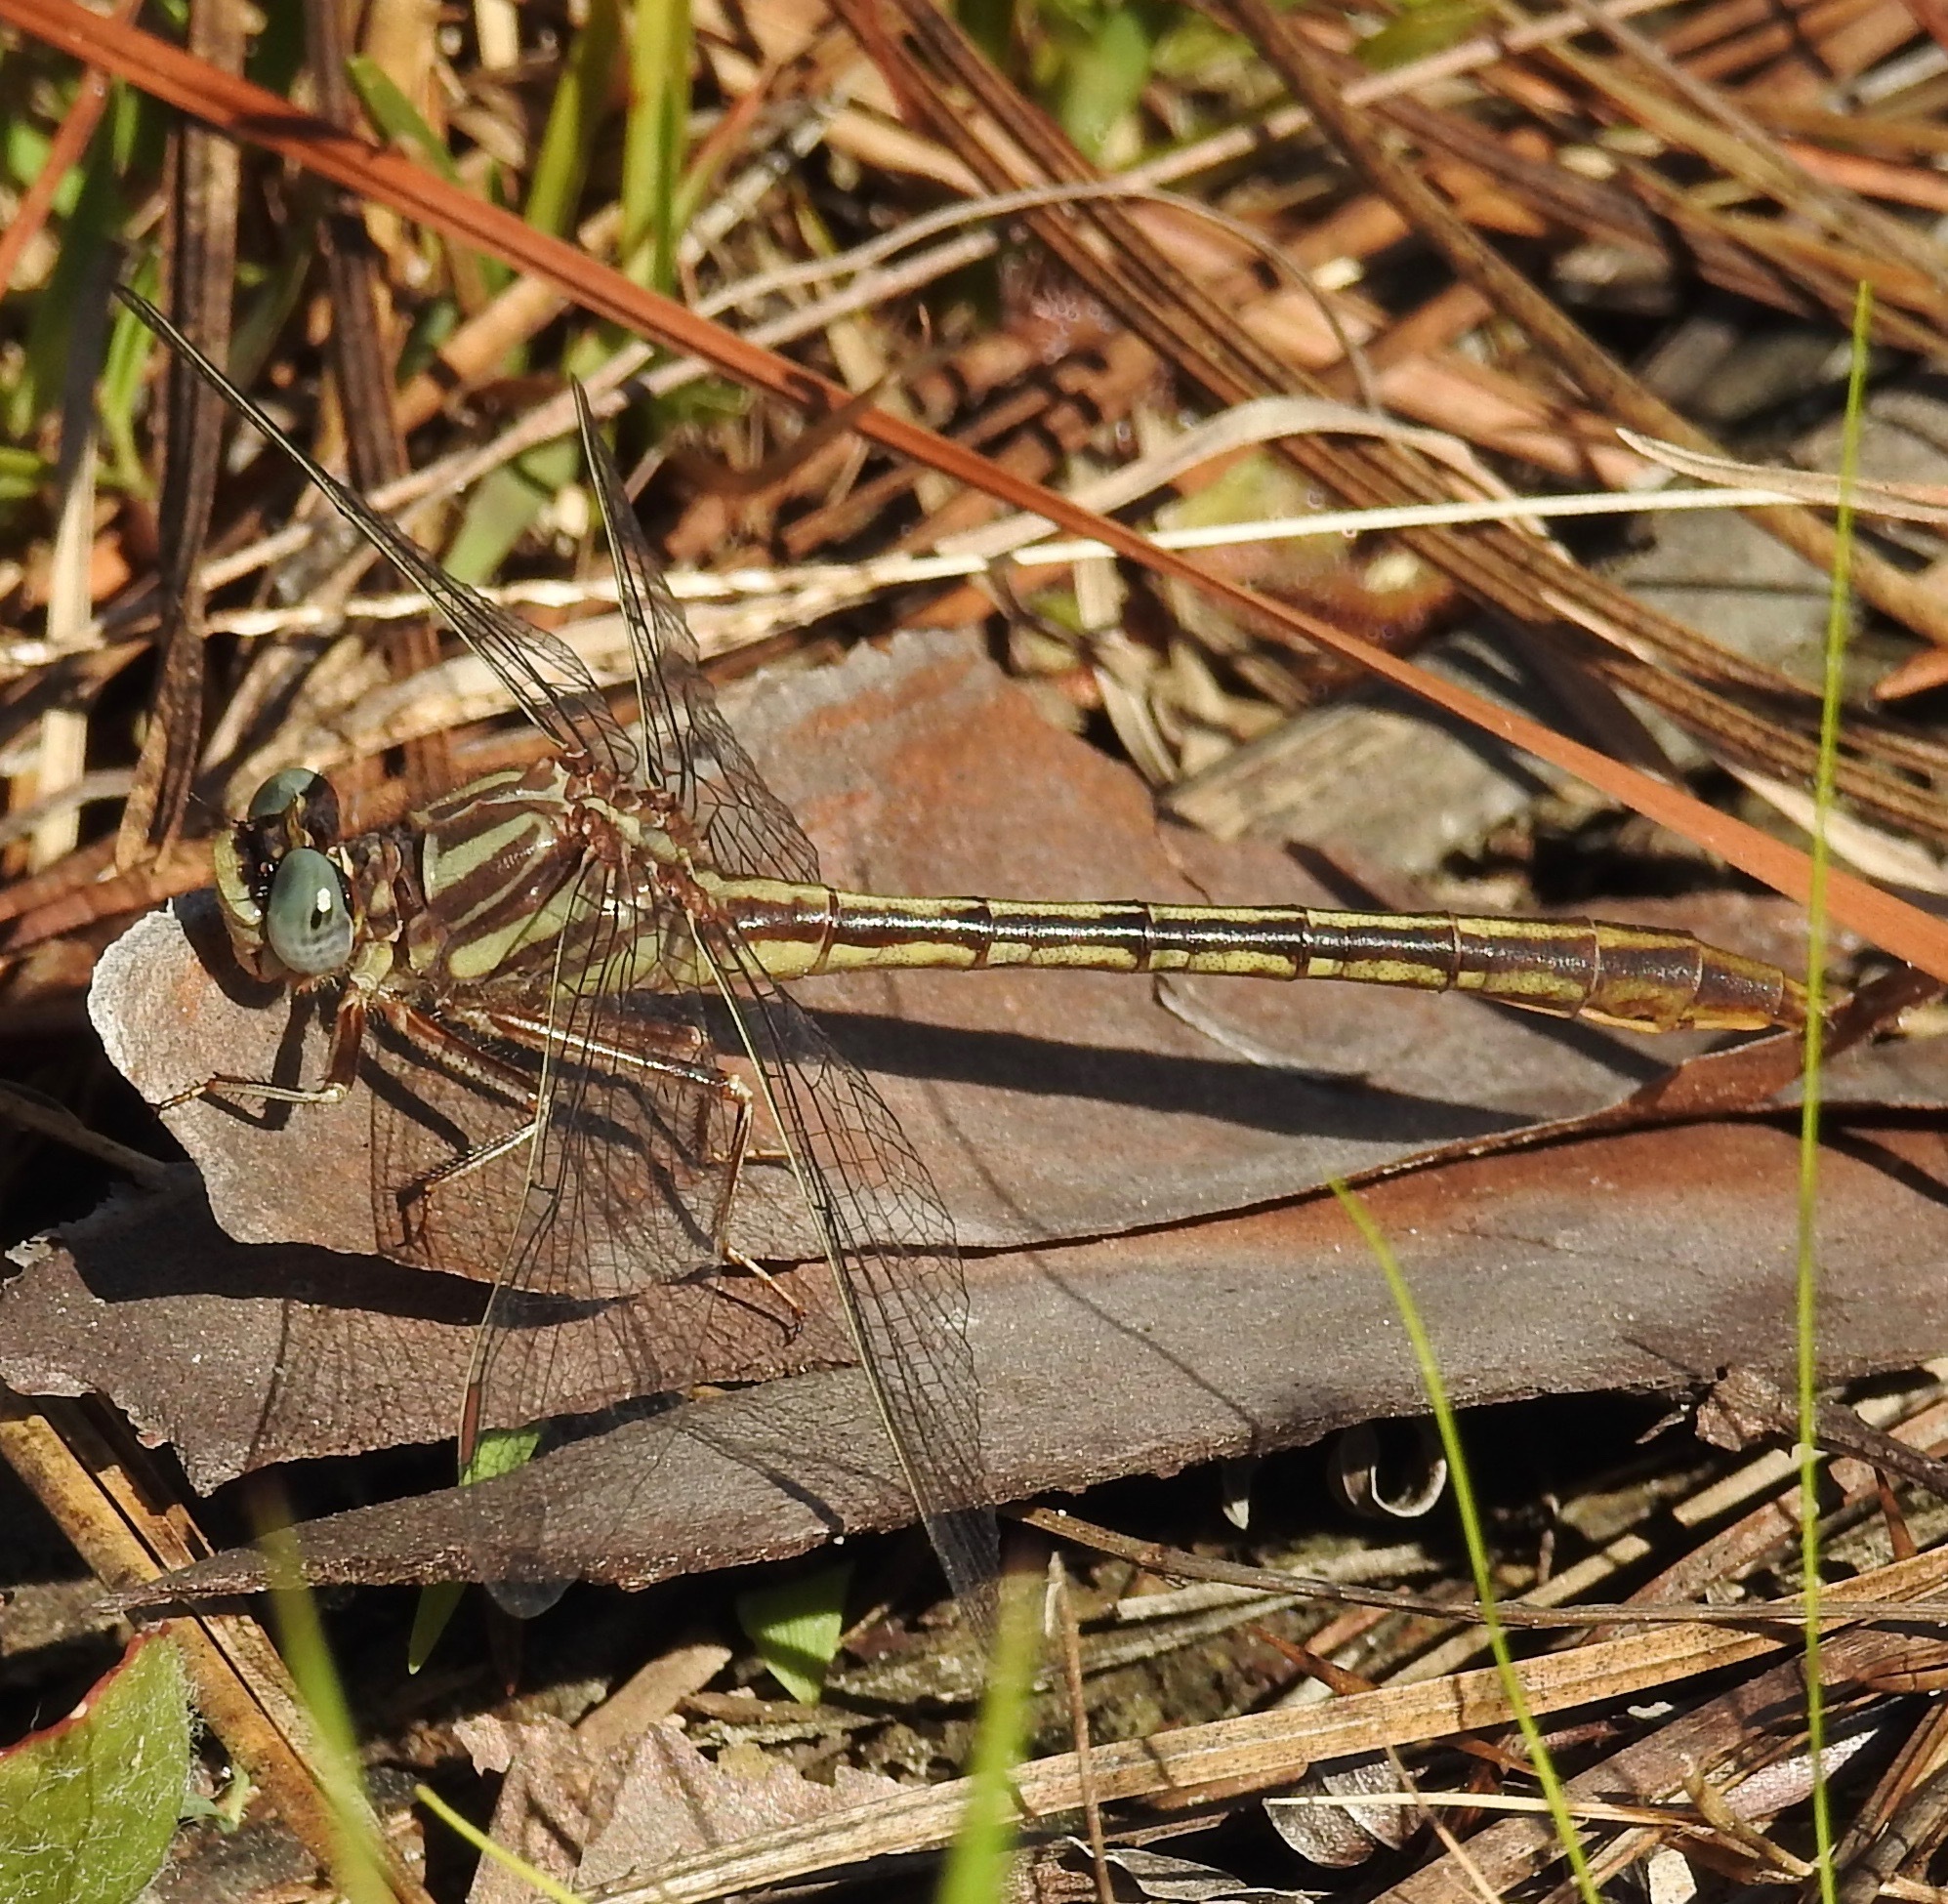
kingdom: Animalia
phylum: Arthropoda
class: Insecta
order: Odonata
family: Gomphidae
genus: Phanogomphus
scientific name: Phanogomphus minutus
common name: Cypress clubtail
